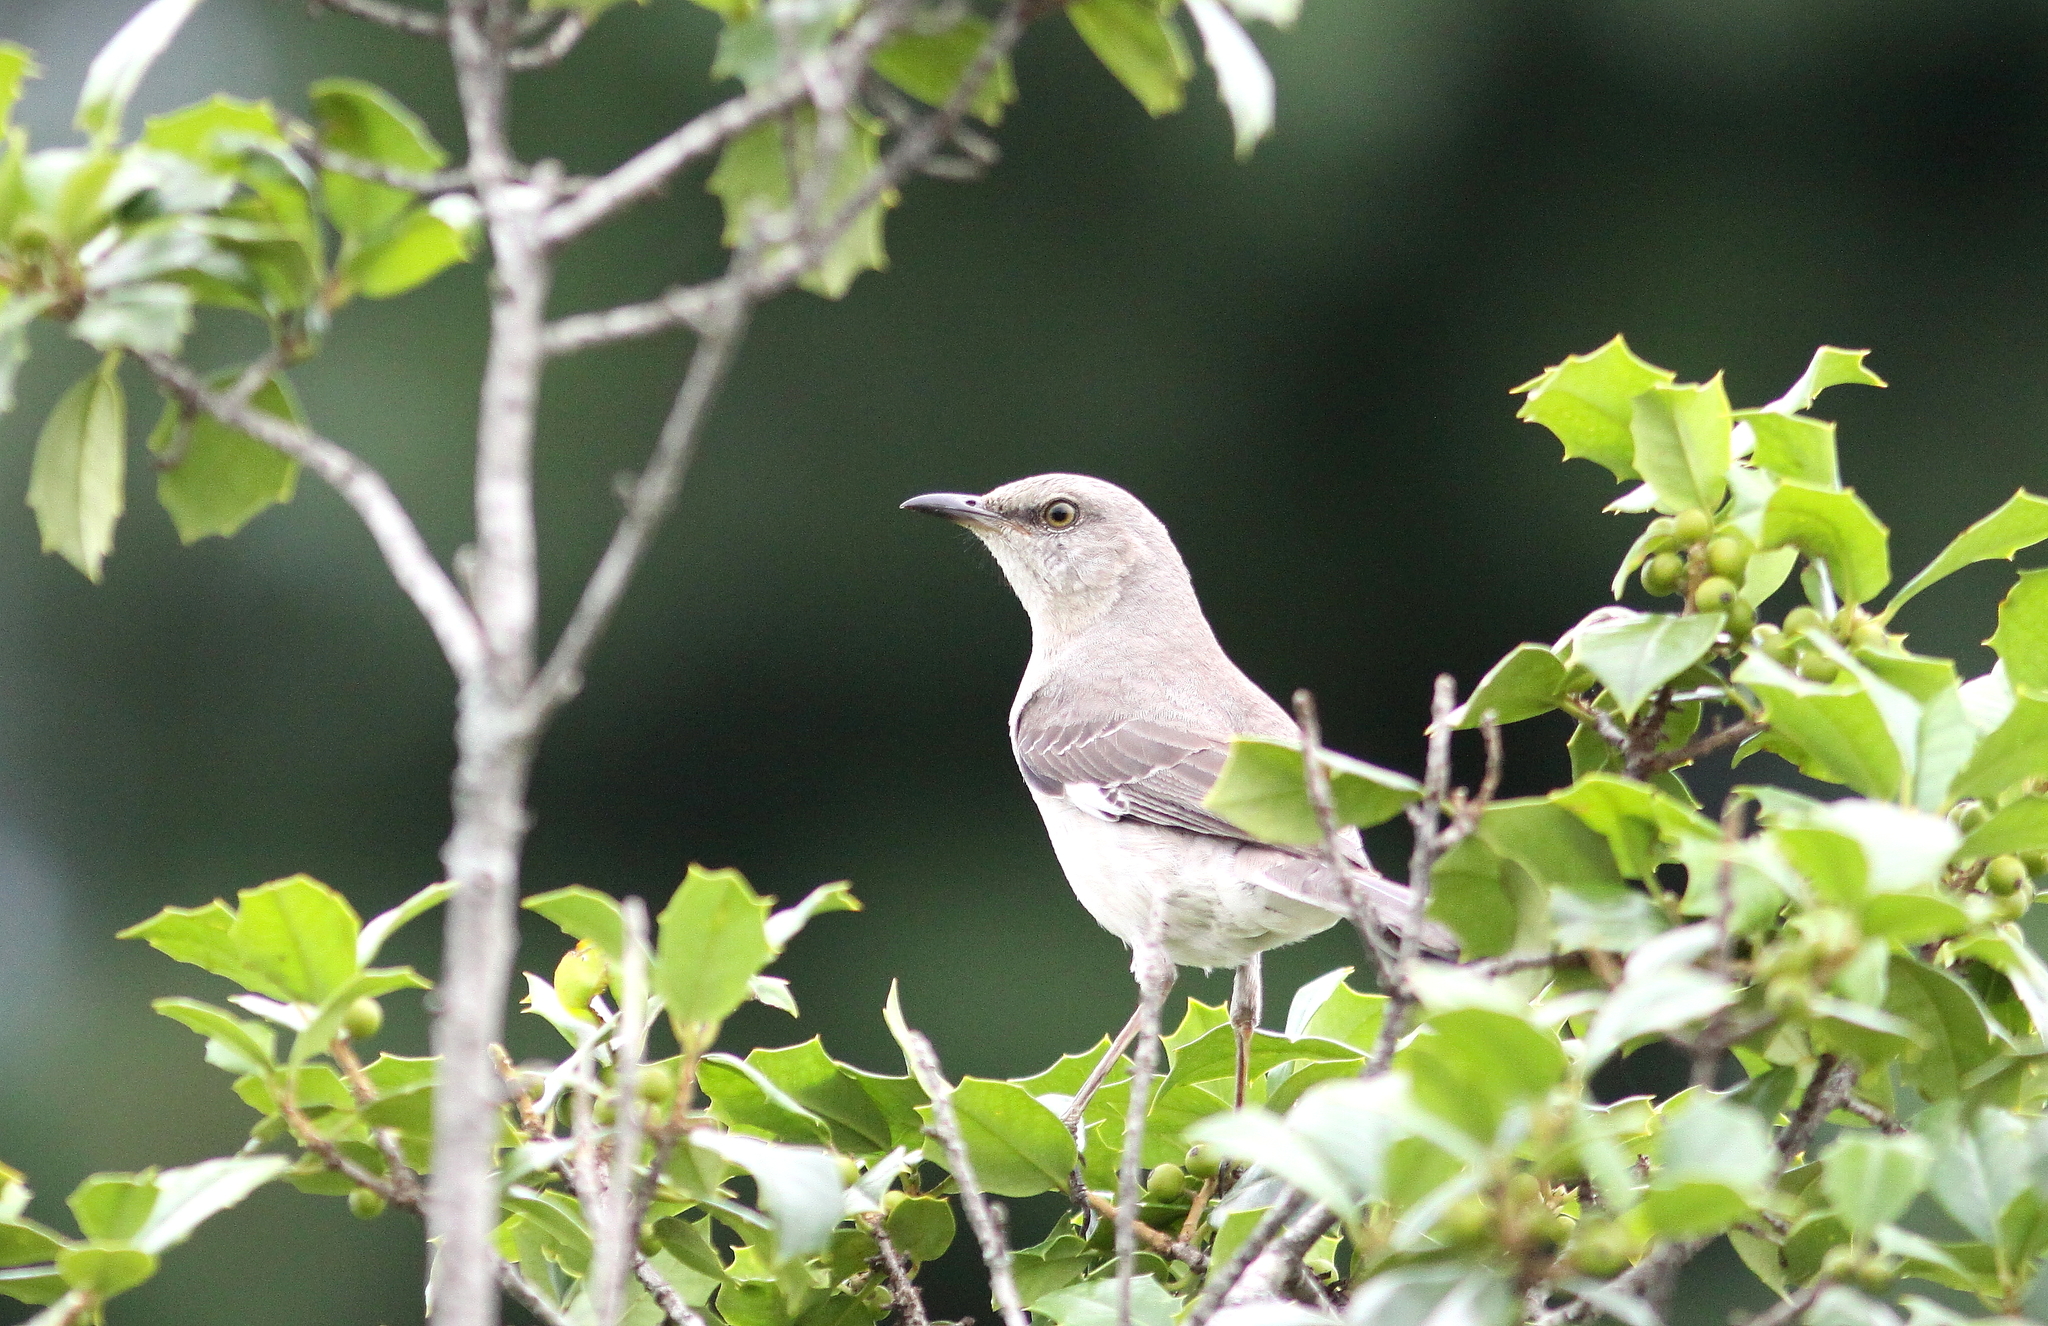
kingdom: Animalia
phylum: Chordata
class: Aves
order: Passeriformes
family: Mimidae
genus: Mimus
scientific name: Mimus polyglottos
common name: Northern mockingbird
